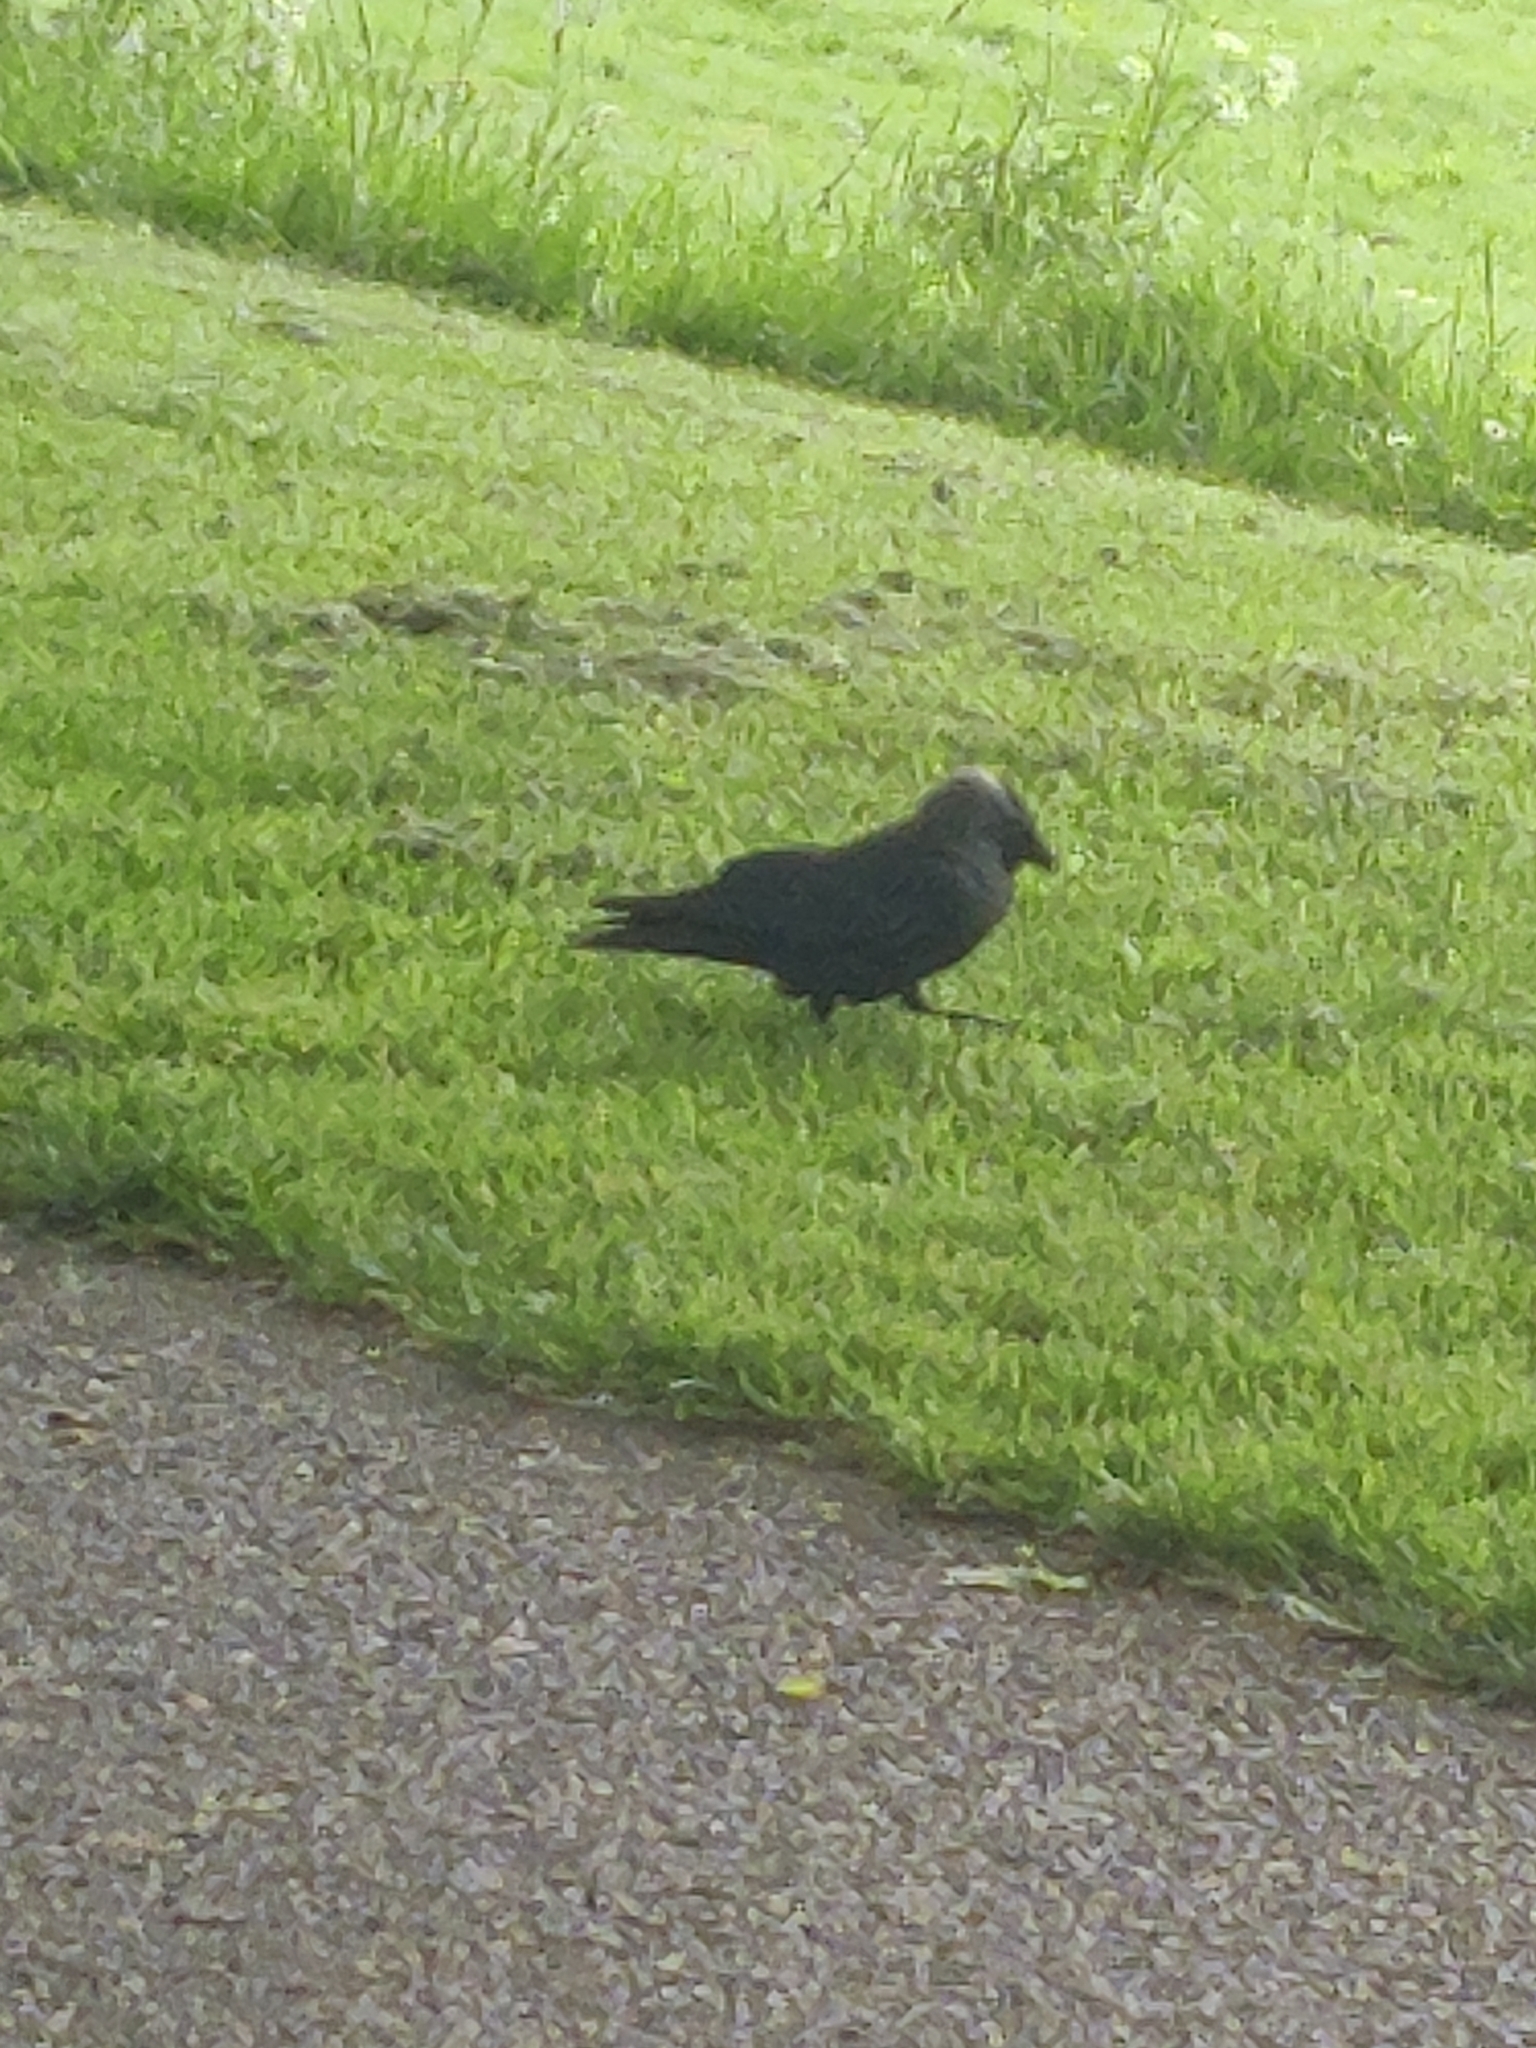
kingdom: Animalia
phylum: Chordata
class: Aves
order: Passeriformes
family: Corvidae
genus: Coloeus
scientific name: Coloeus monedula
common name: Western jackdaw
